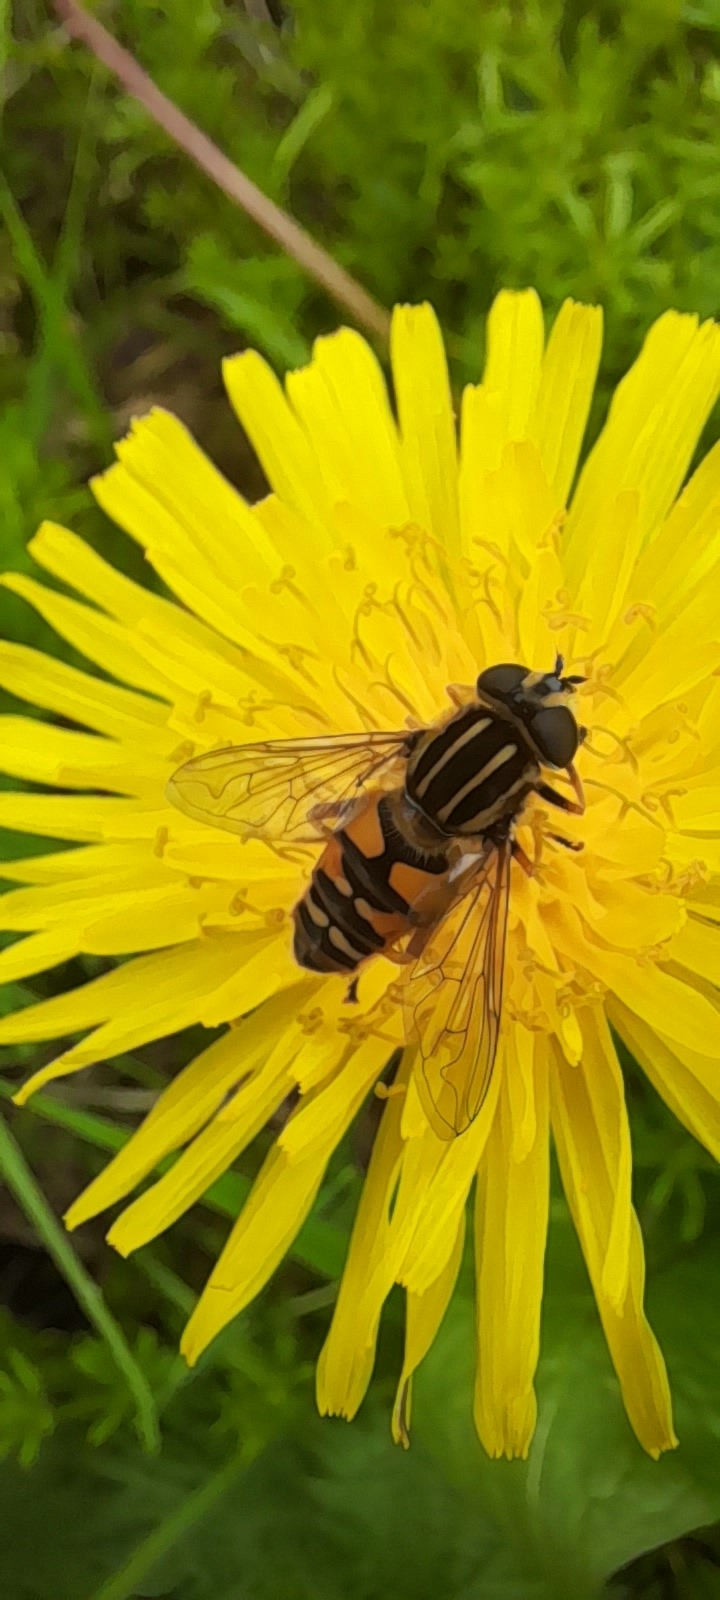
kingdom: Animalia
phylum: Arthropoda
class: Insecta
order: Diptera
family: Syrphidae
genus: Helophilus
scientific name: Helophilus pendulus
